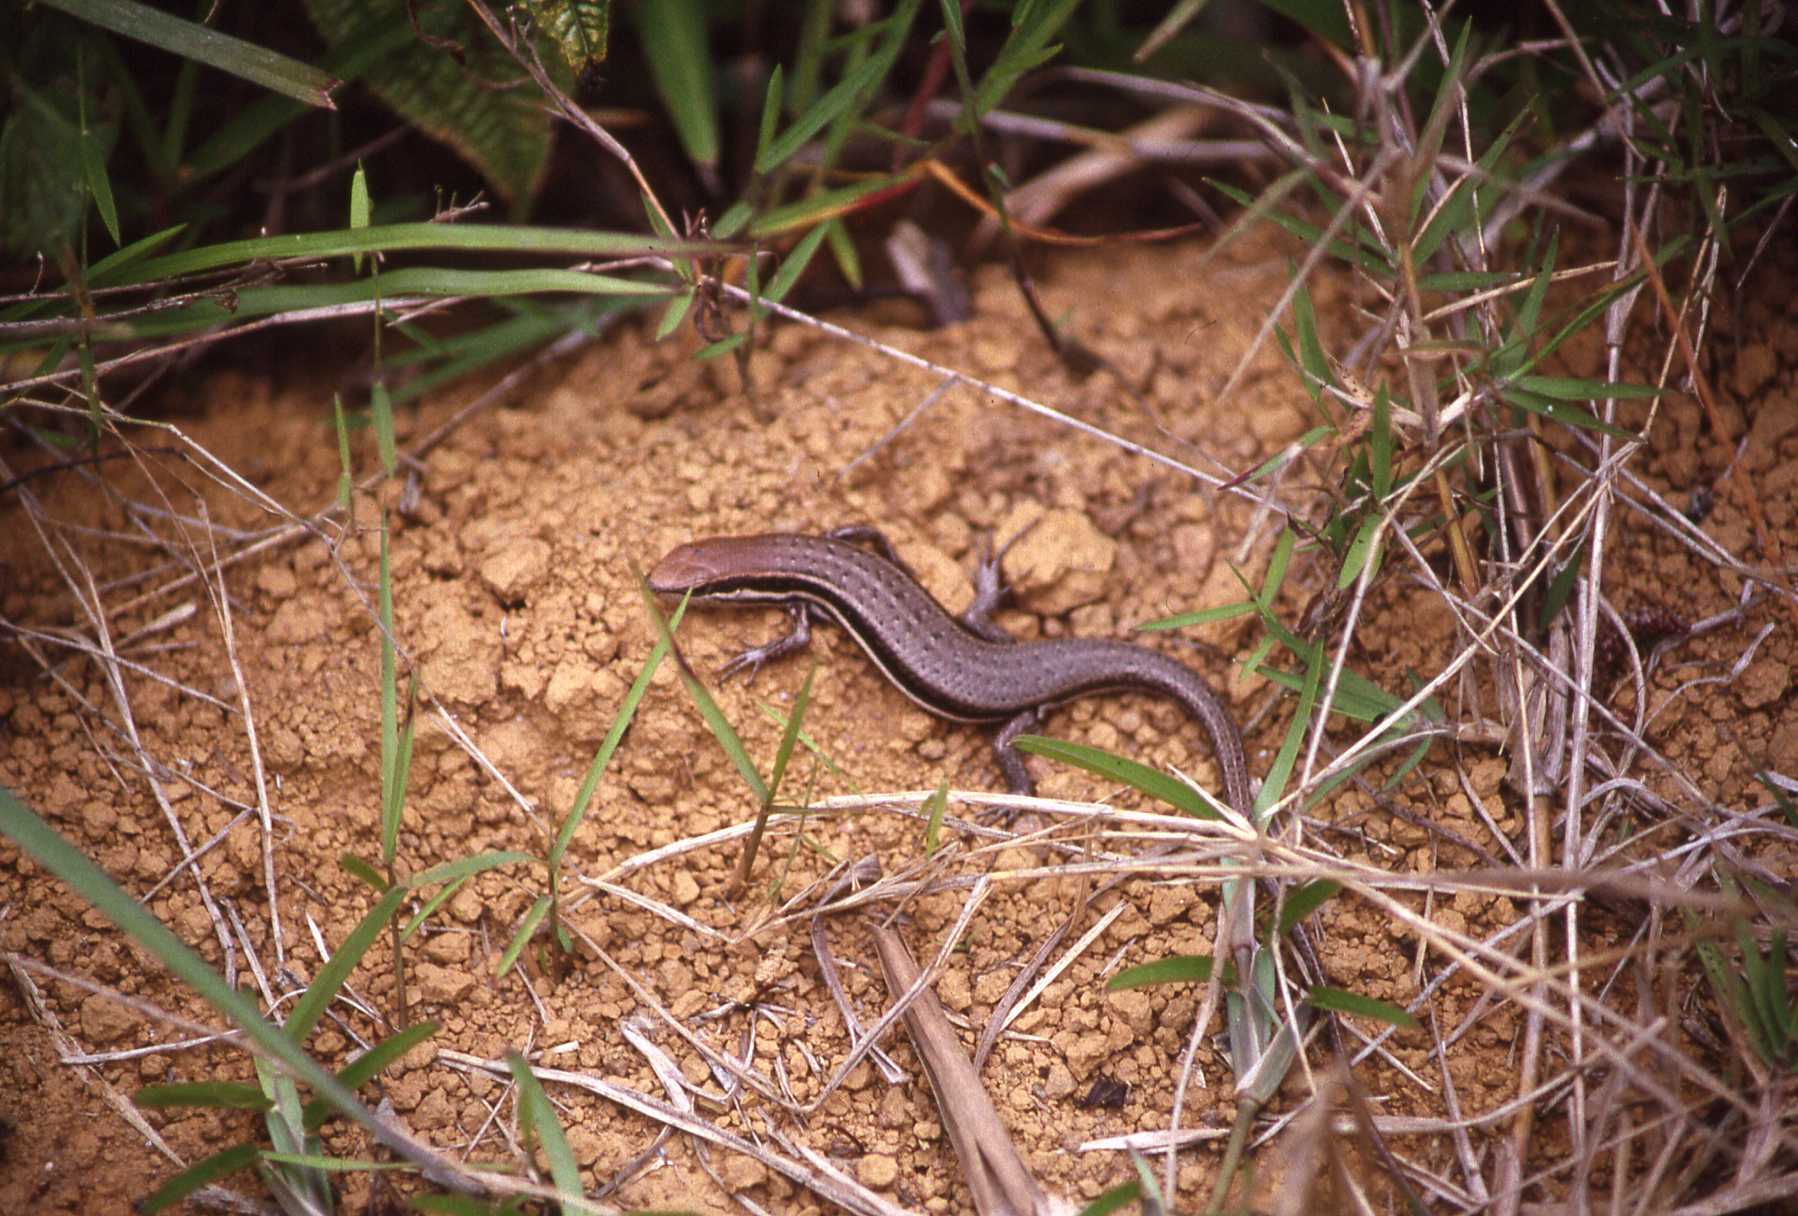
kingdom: Animalia
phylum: Chordata
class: Squamata
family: Scincidae
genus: Trachylepis
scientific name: Trachylepis gravenhorstii
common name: Gravenhorst's mabuya
